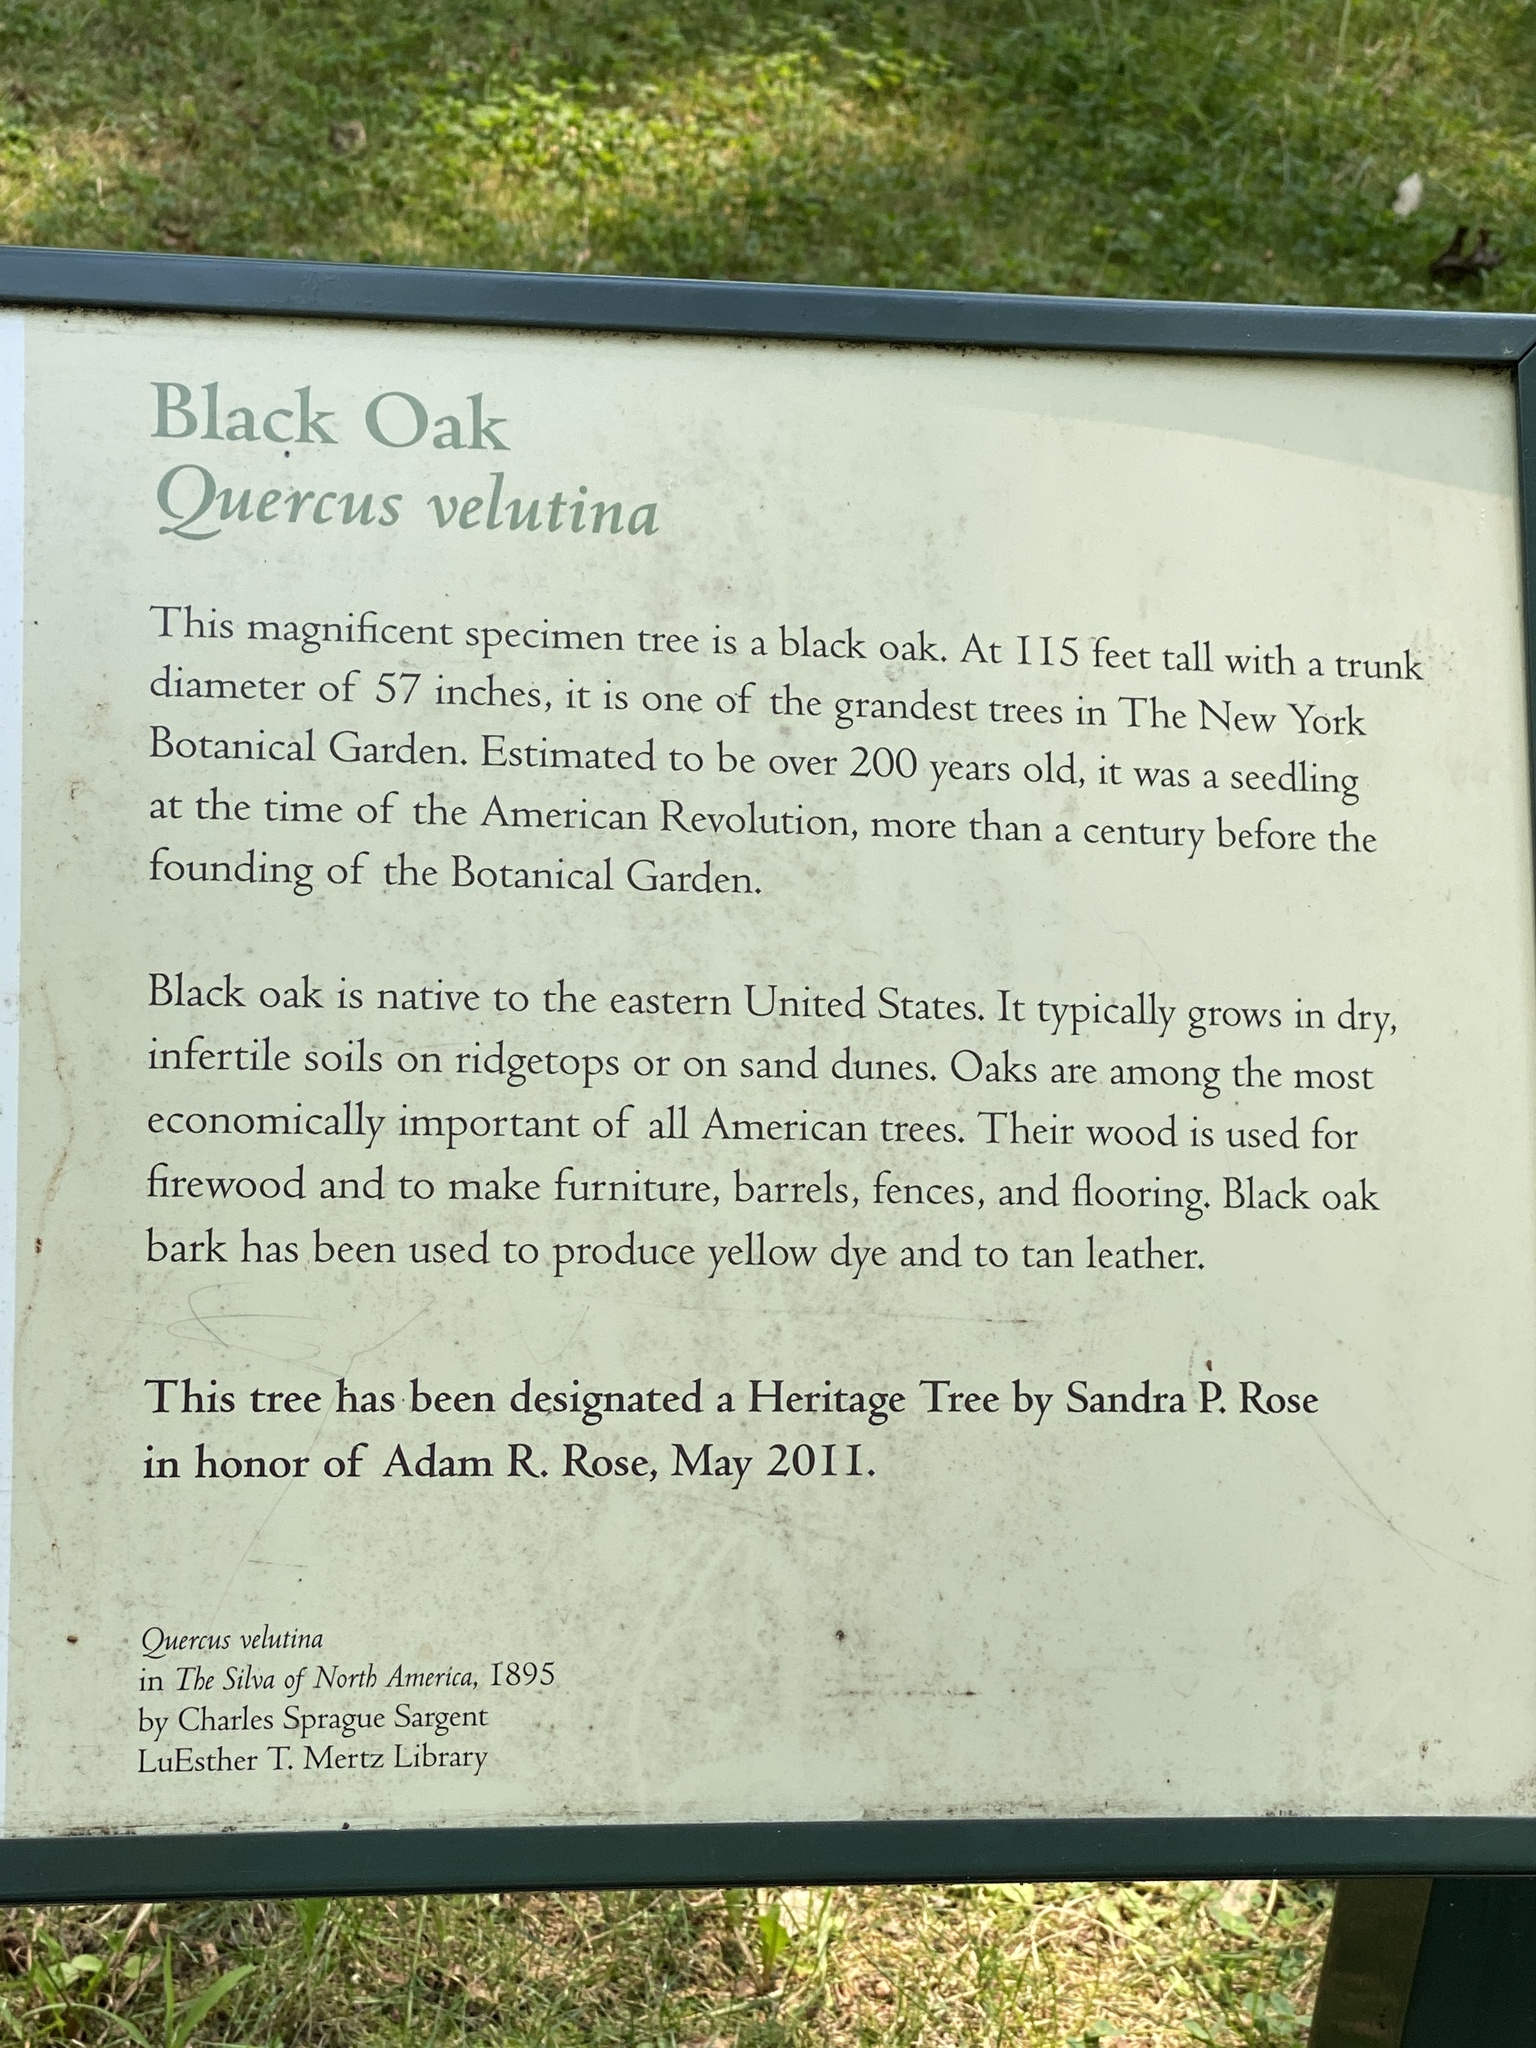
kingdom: Plantae
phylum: Tracheophyta
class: Magnoliopsida
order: Fagales
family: Fagaceae
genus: Quercus
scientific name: Quercus velutina
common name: Black oak
